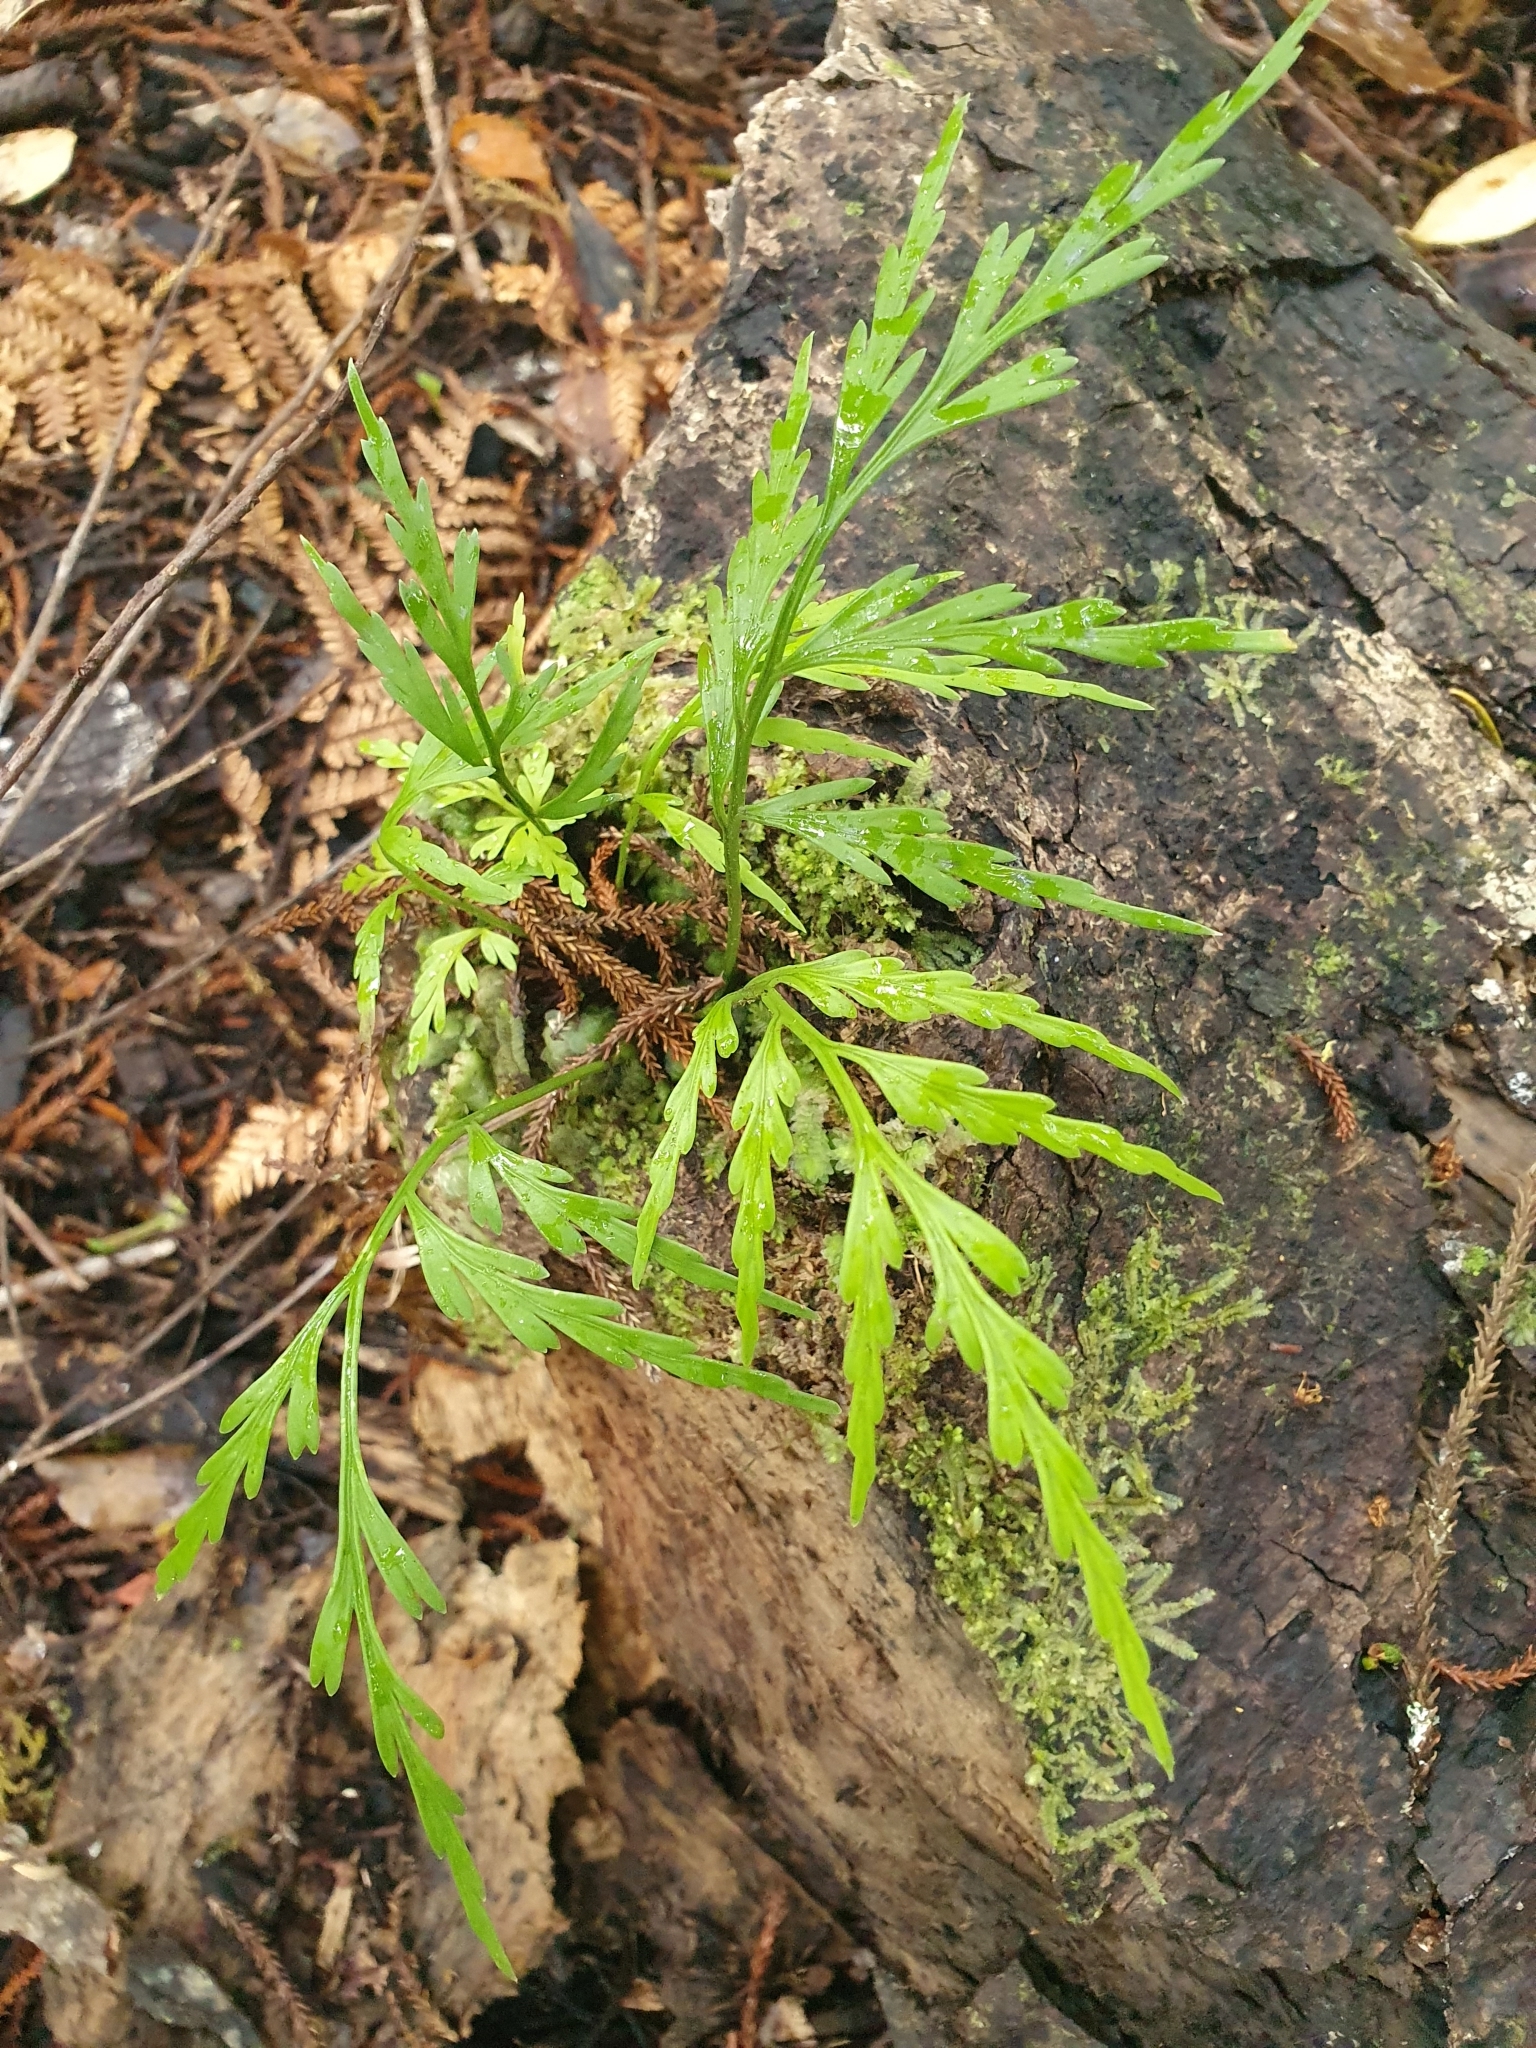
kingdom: Plantae
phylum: Tracheophyta
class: Polypodiopsida
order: Polypodiales
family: Aspleniaceae
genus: Asplenium
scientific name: Asplenium flaccidum
